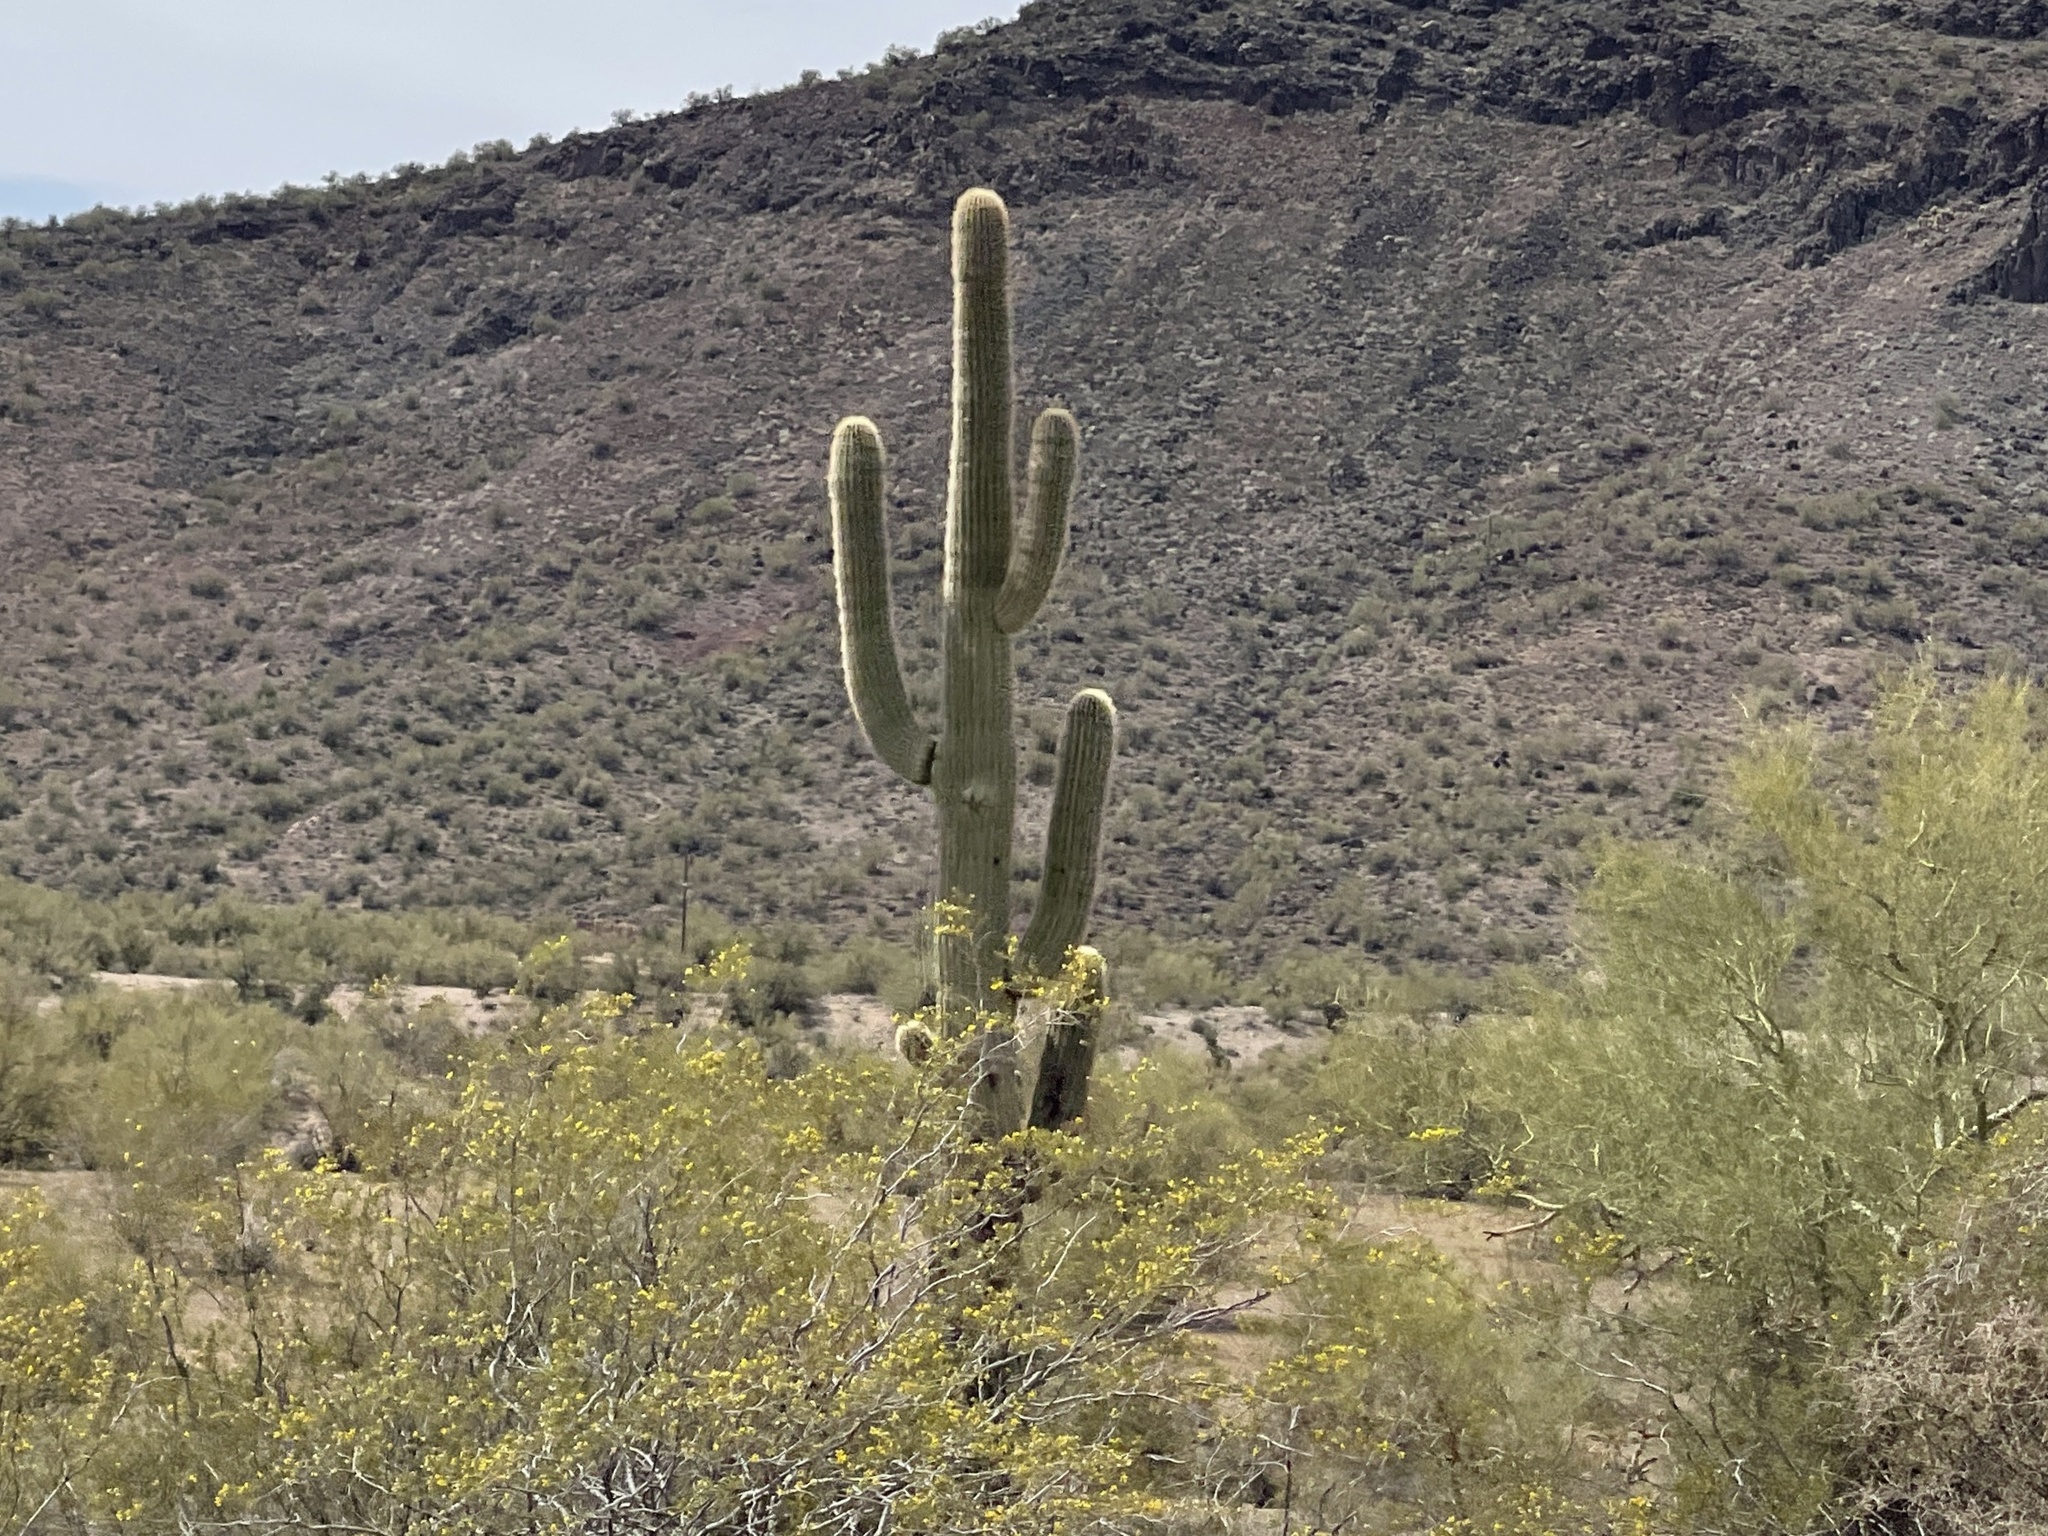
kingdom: Plantae
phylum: Tracheophyta
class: Magnoliopsida
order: Caryophyllales
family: Cactaceae
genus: Carnegiea
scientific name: Carnegiea gigantea
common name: Saguaro
